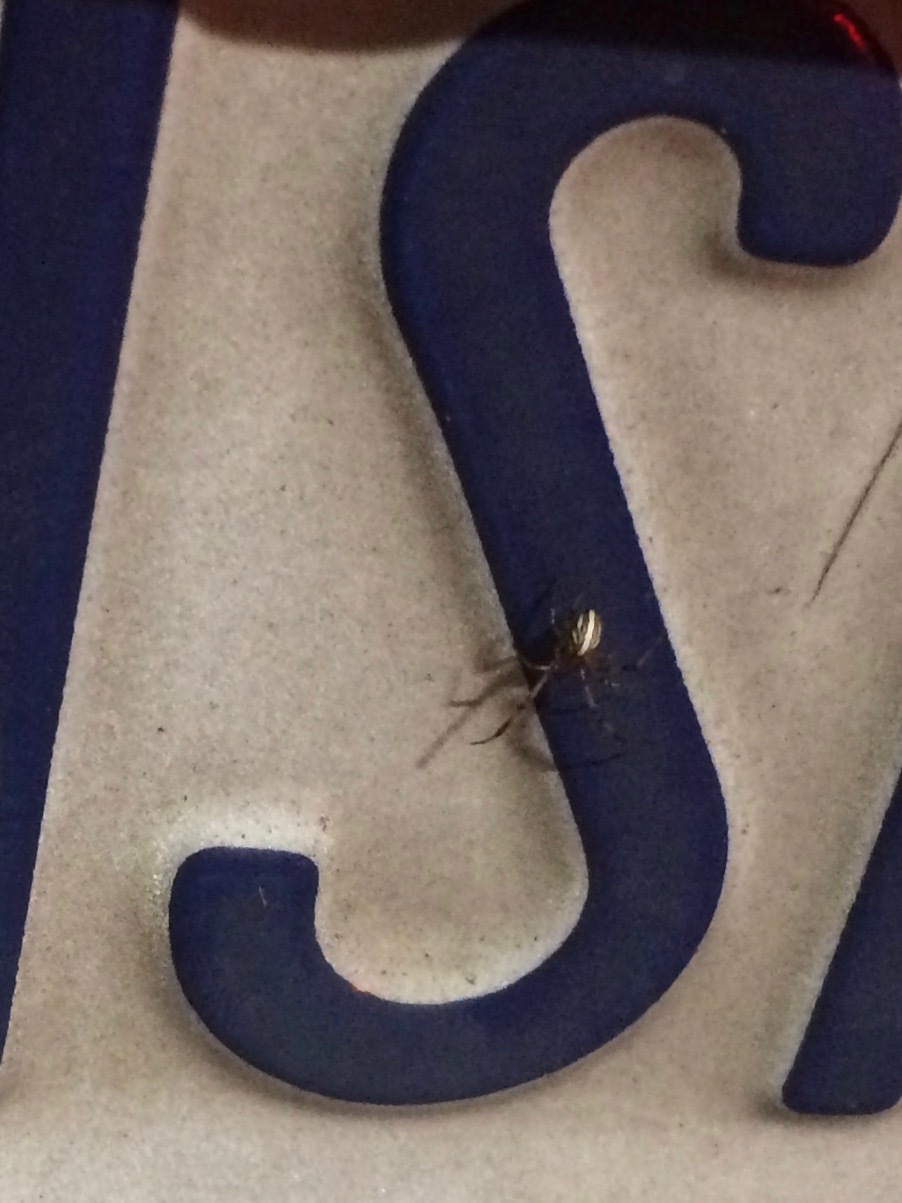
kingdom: Animalia
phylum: Arthropoda
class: Arachnida
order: Araneae
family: Theridiidae
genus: Latrodectus
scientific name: Latrodectus hesperus
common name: Western black widow
